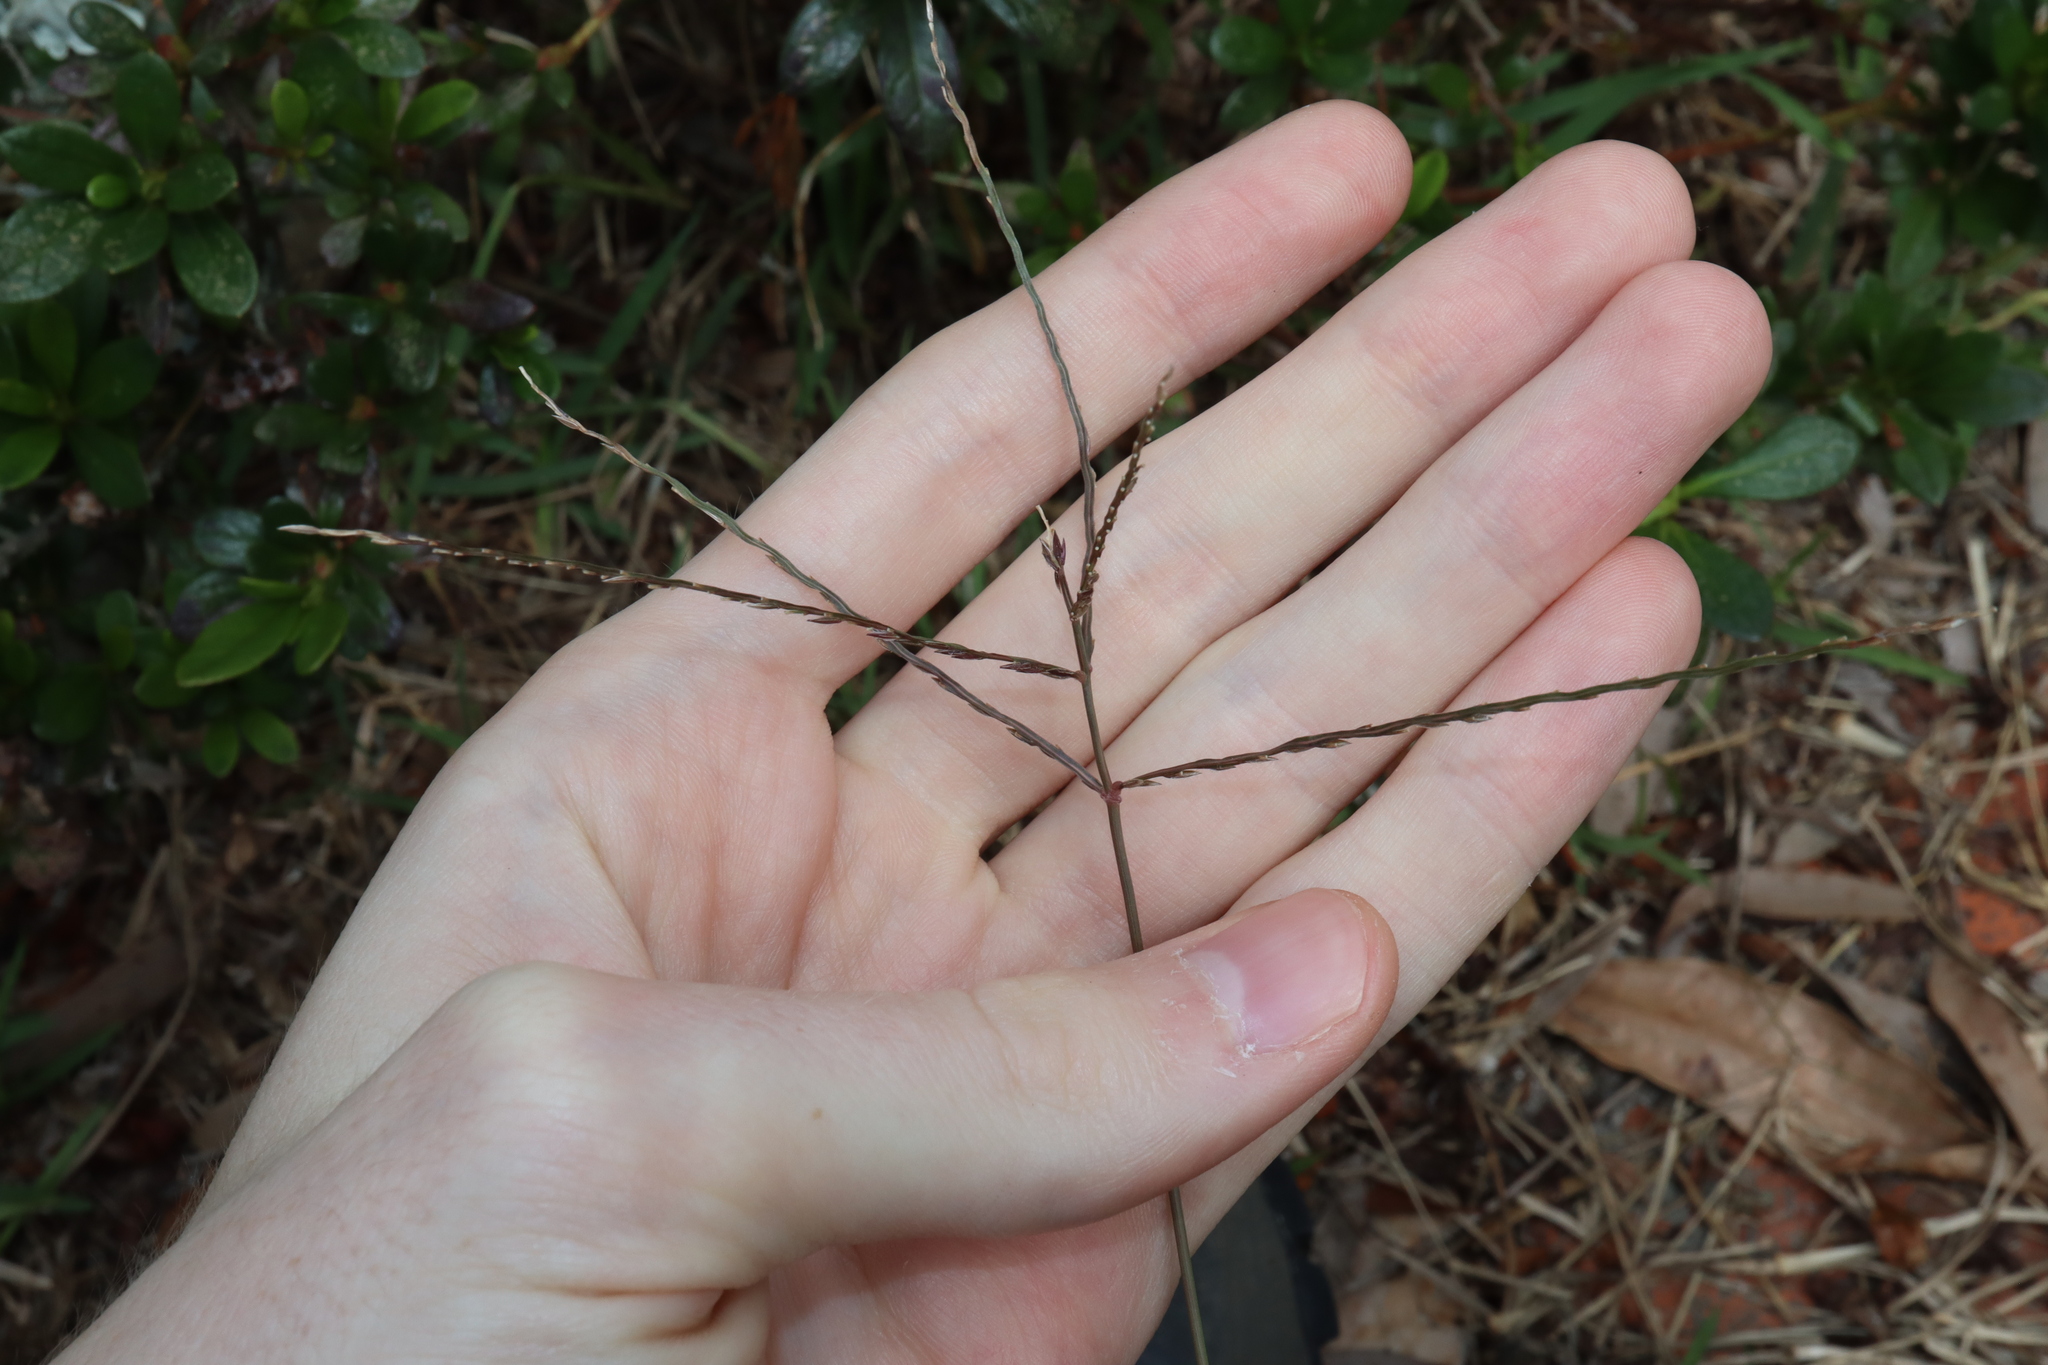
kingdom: Plantae
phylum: Tracheophyta
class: Liliopsida
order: Poales
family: Poaceae
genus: Digitaria
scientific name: Digitaria sanguinalis
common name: Hairy crabgrass
